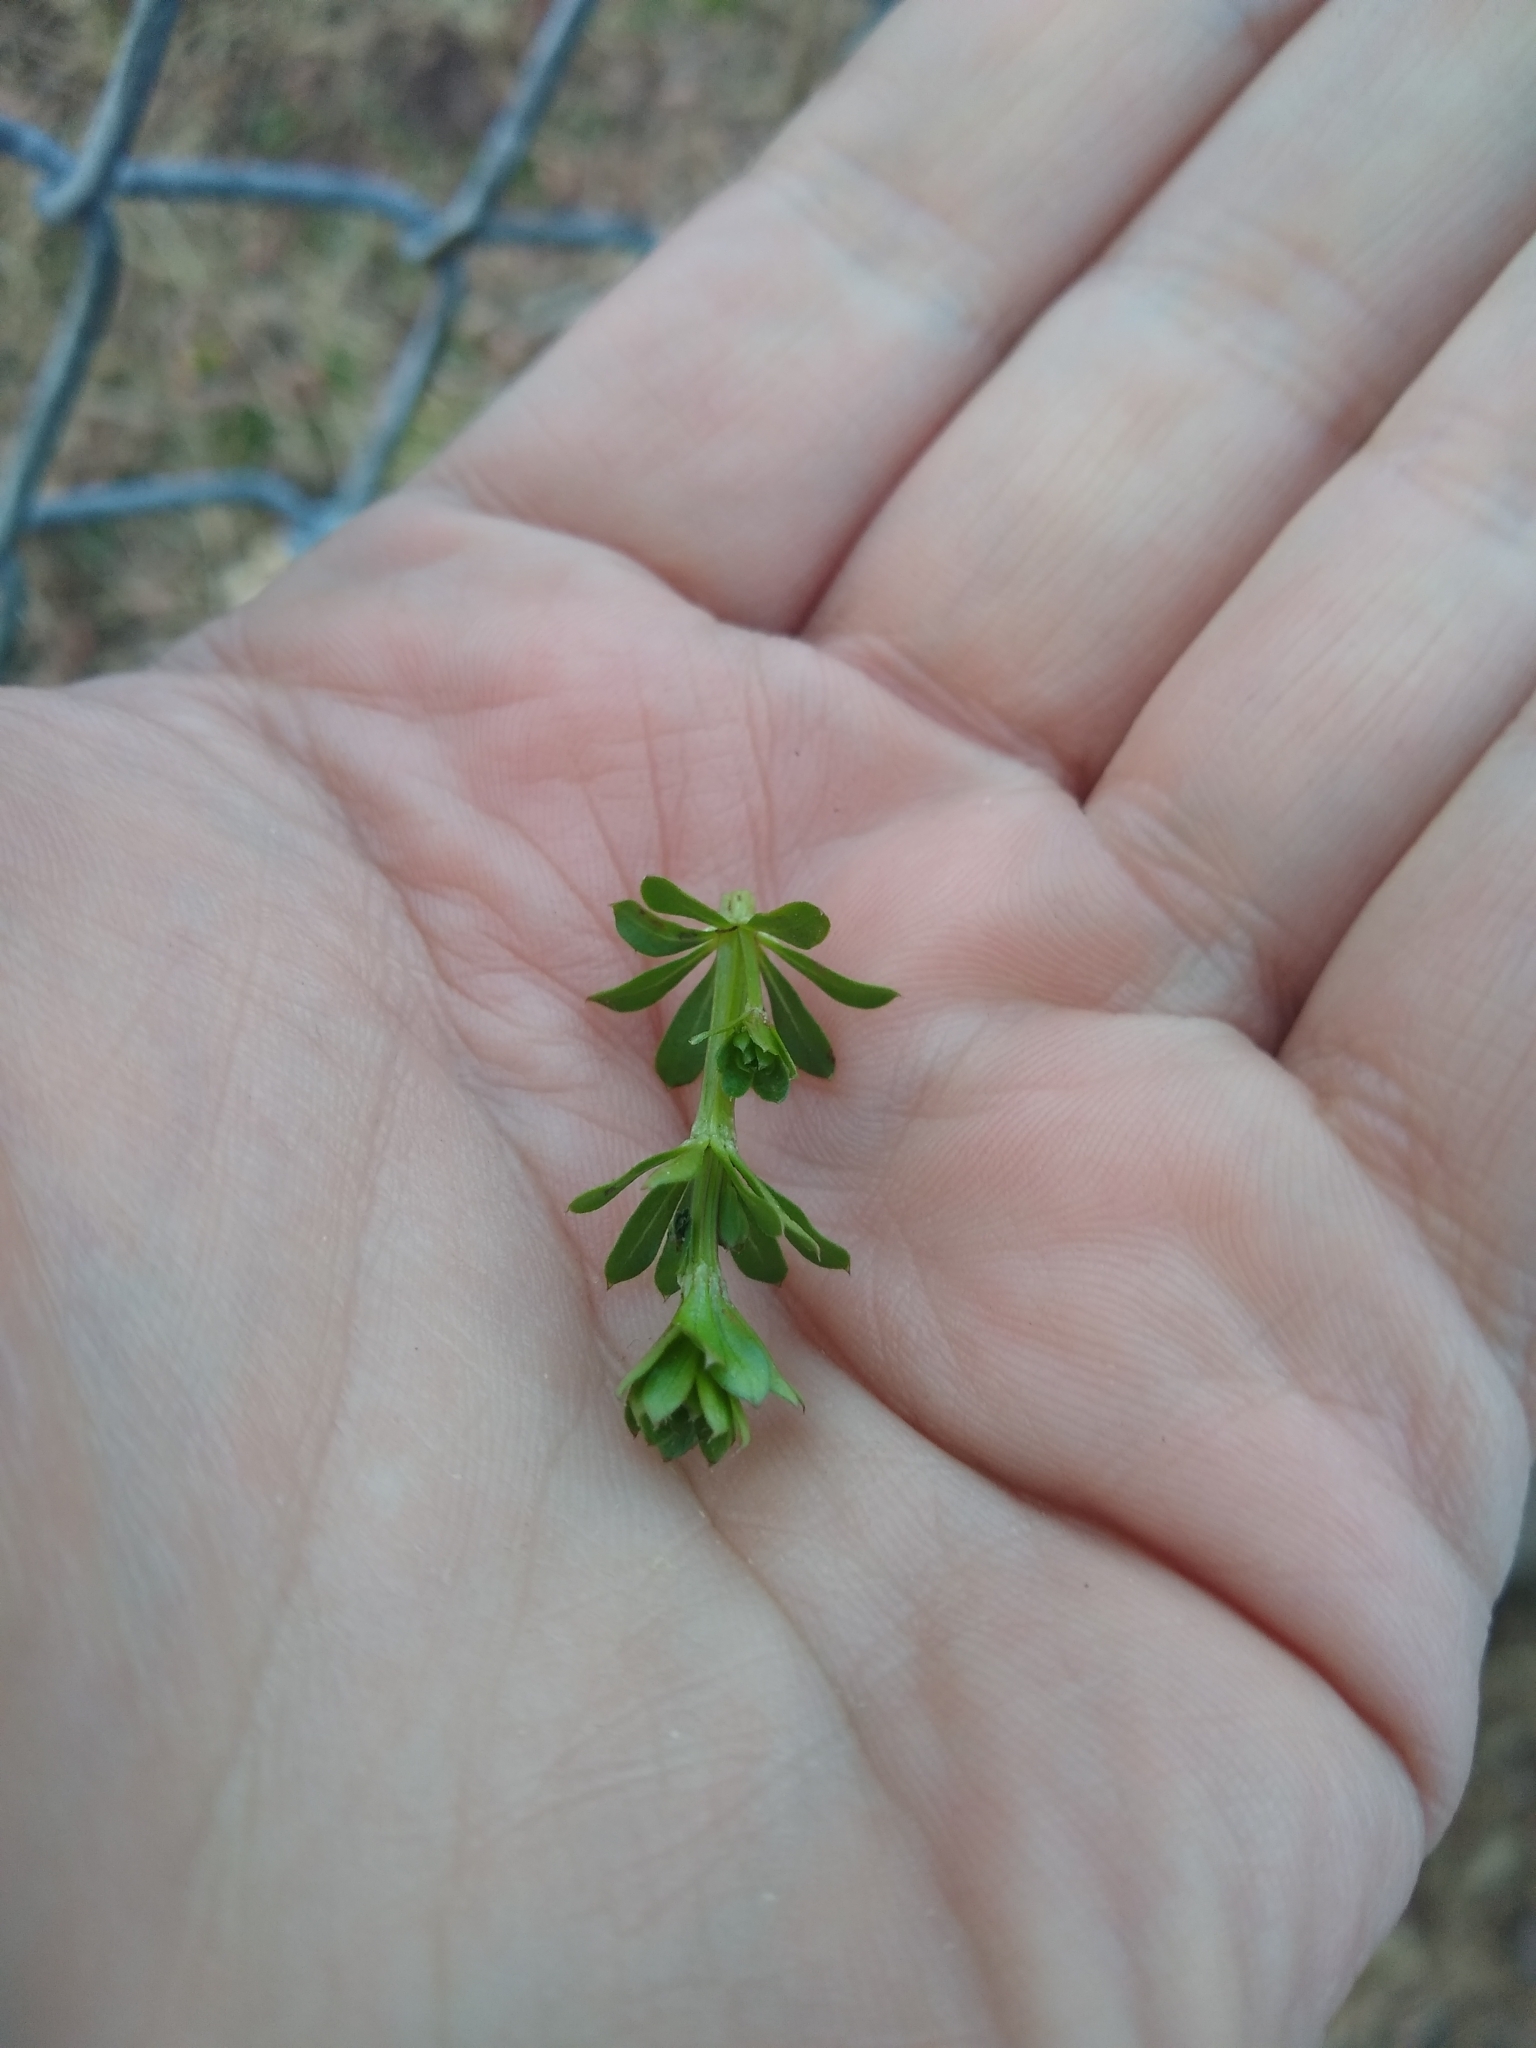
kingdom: Plantae
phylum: Tracheophyta
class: Magnoliopsida
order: Gentianales
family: Rubiaceae
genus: Galium
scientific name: Galium mollugo
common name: Hedge bedstraw
